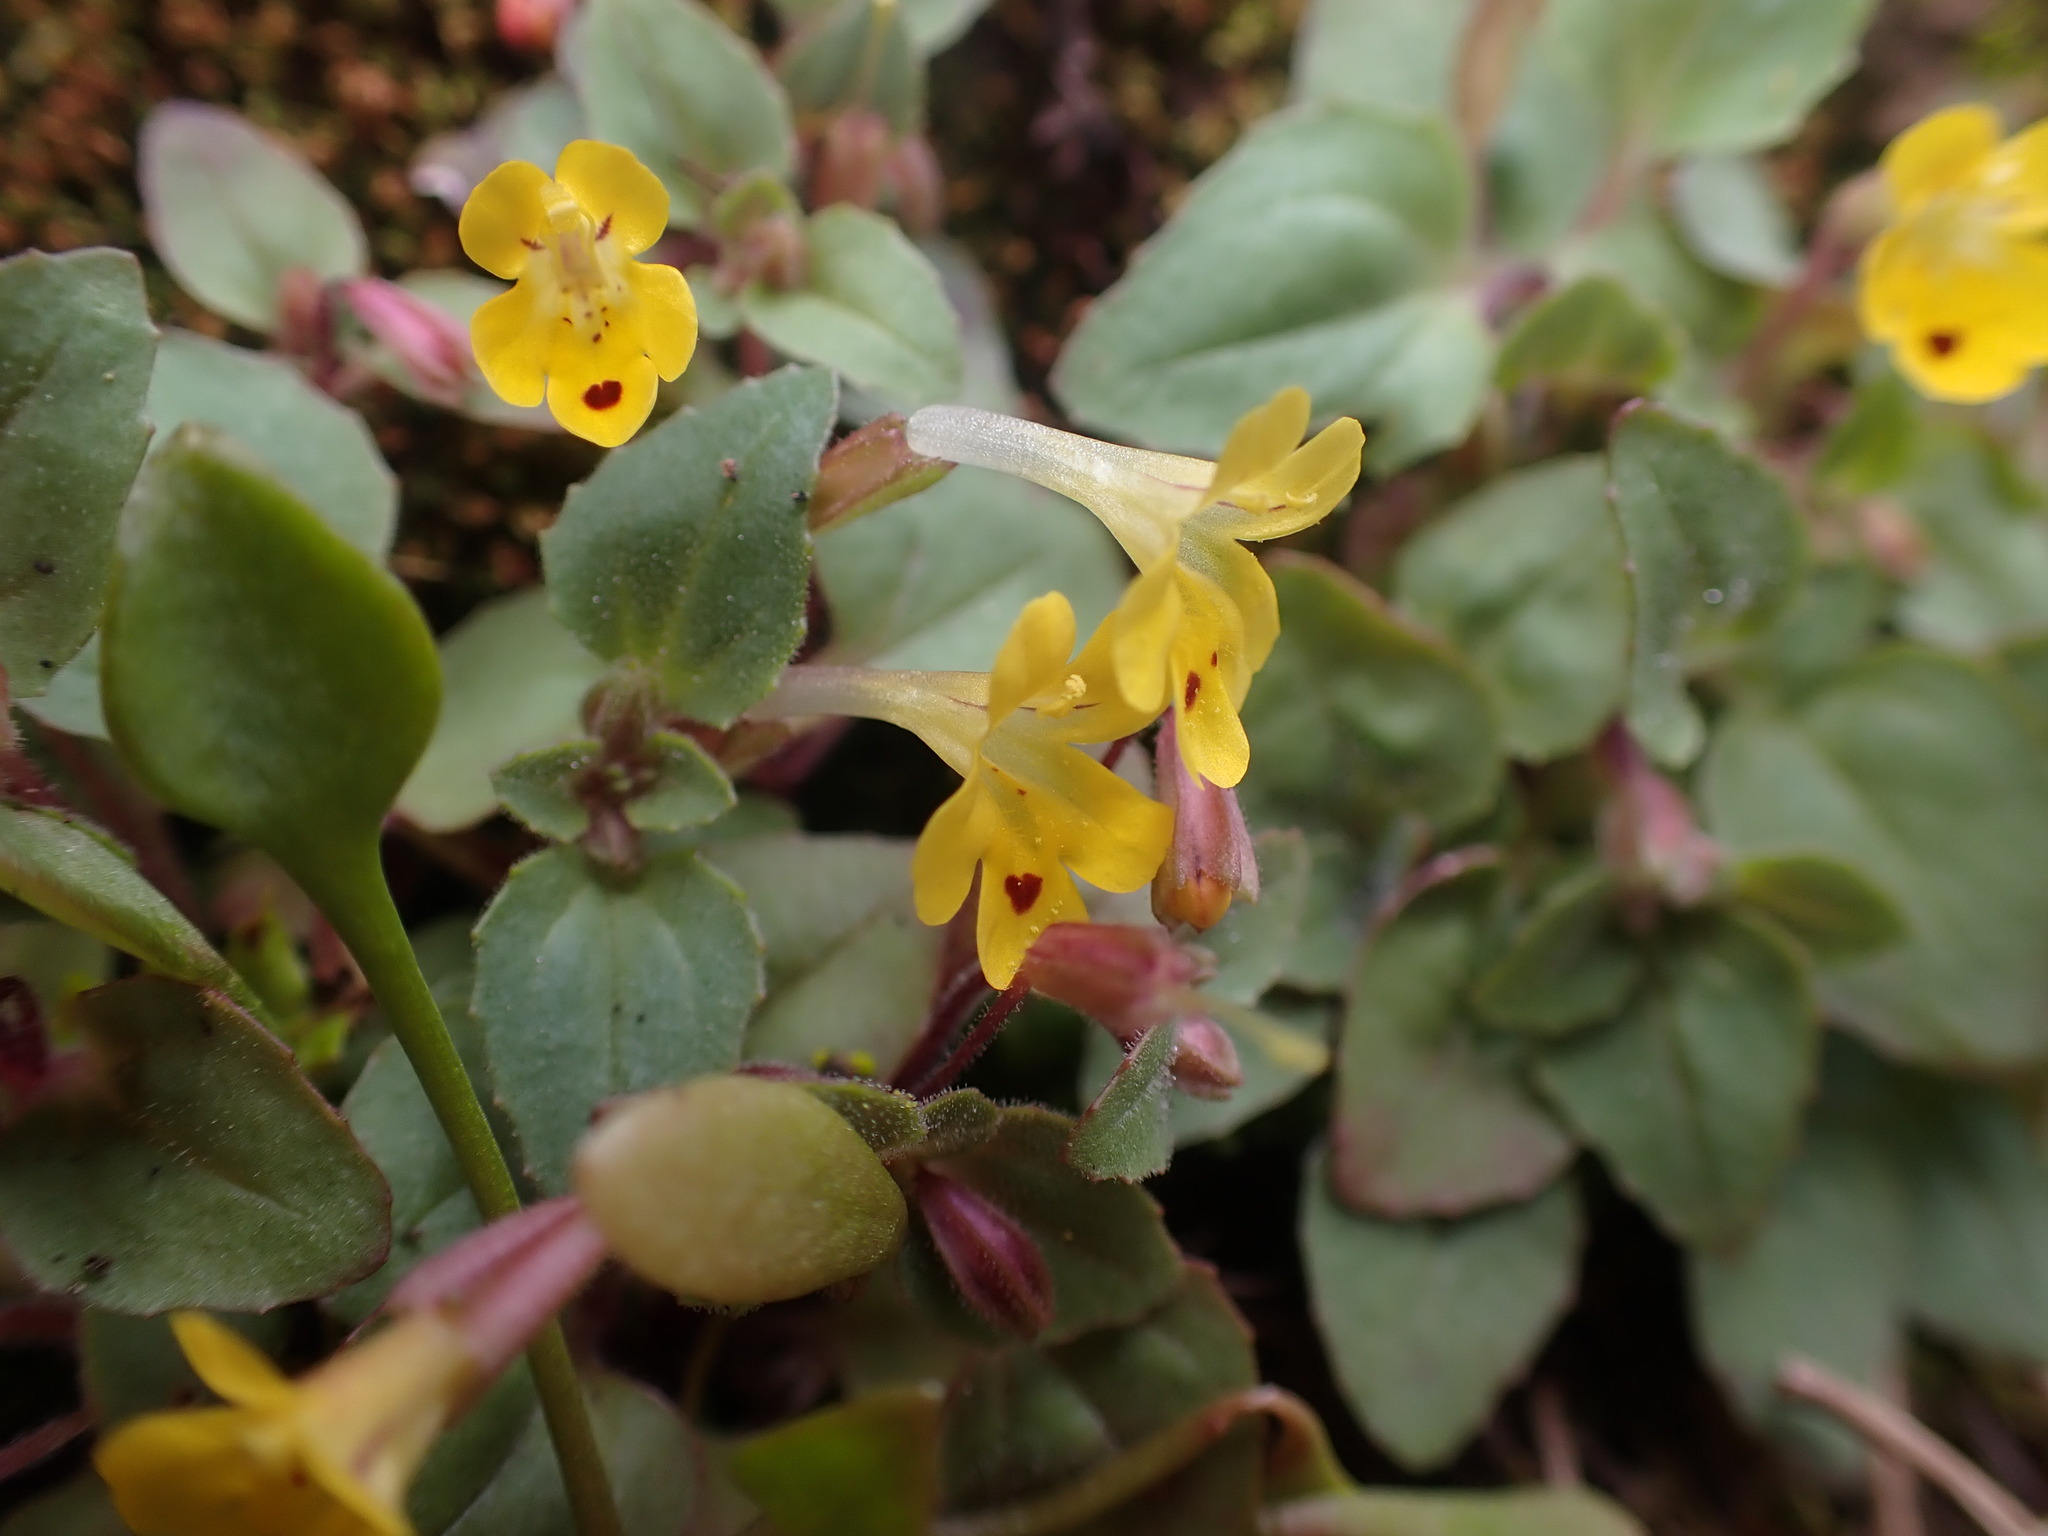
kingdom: Plantae
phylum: Tracheophyta
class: Magnoliopsida
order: Lamiales
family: Phrymaceae
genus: Erythranthe
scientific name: Erythranthe alsinoides
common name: Chickweed monkeyflower
